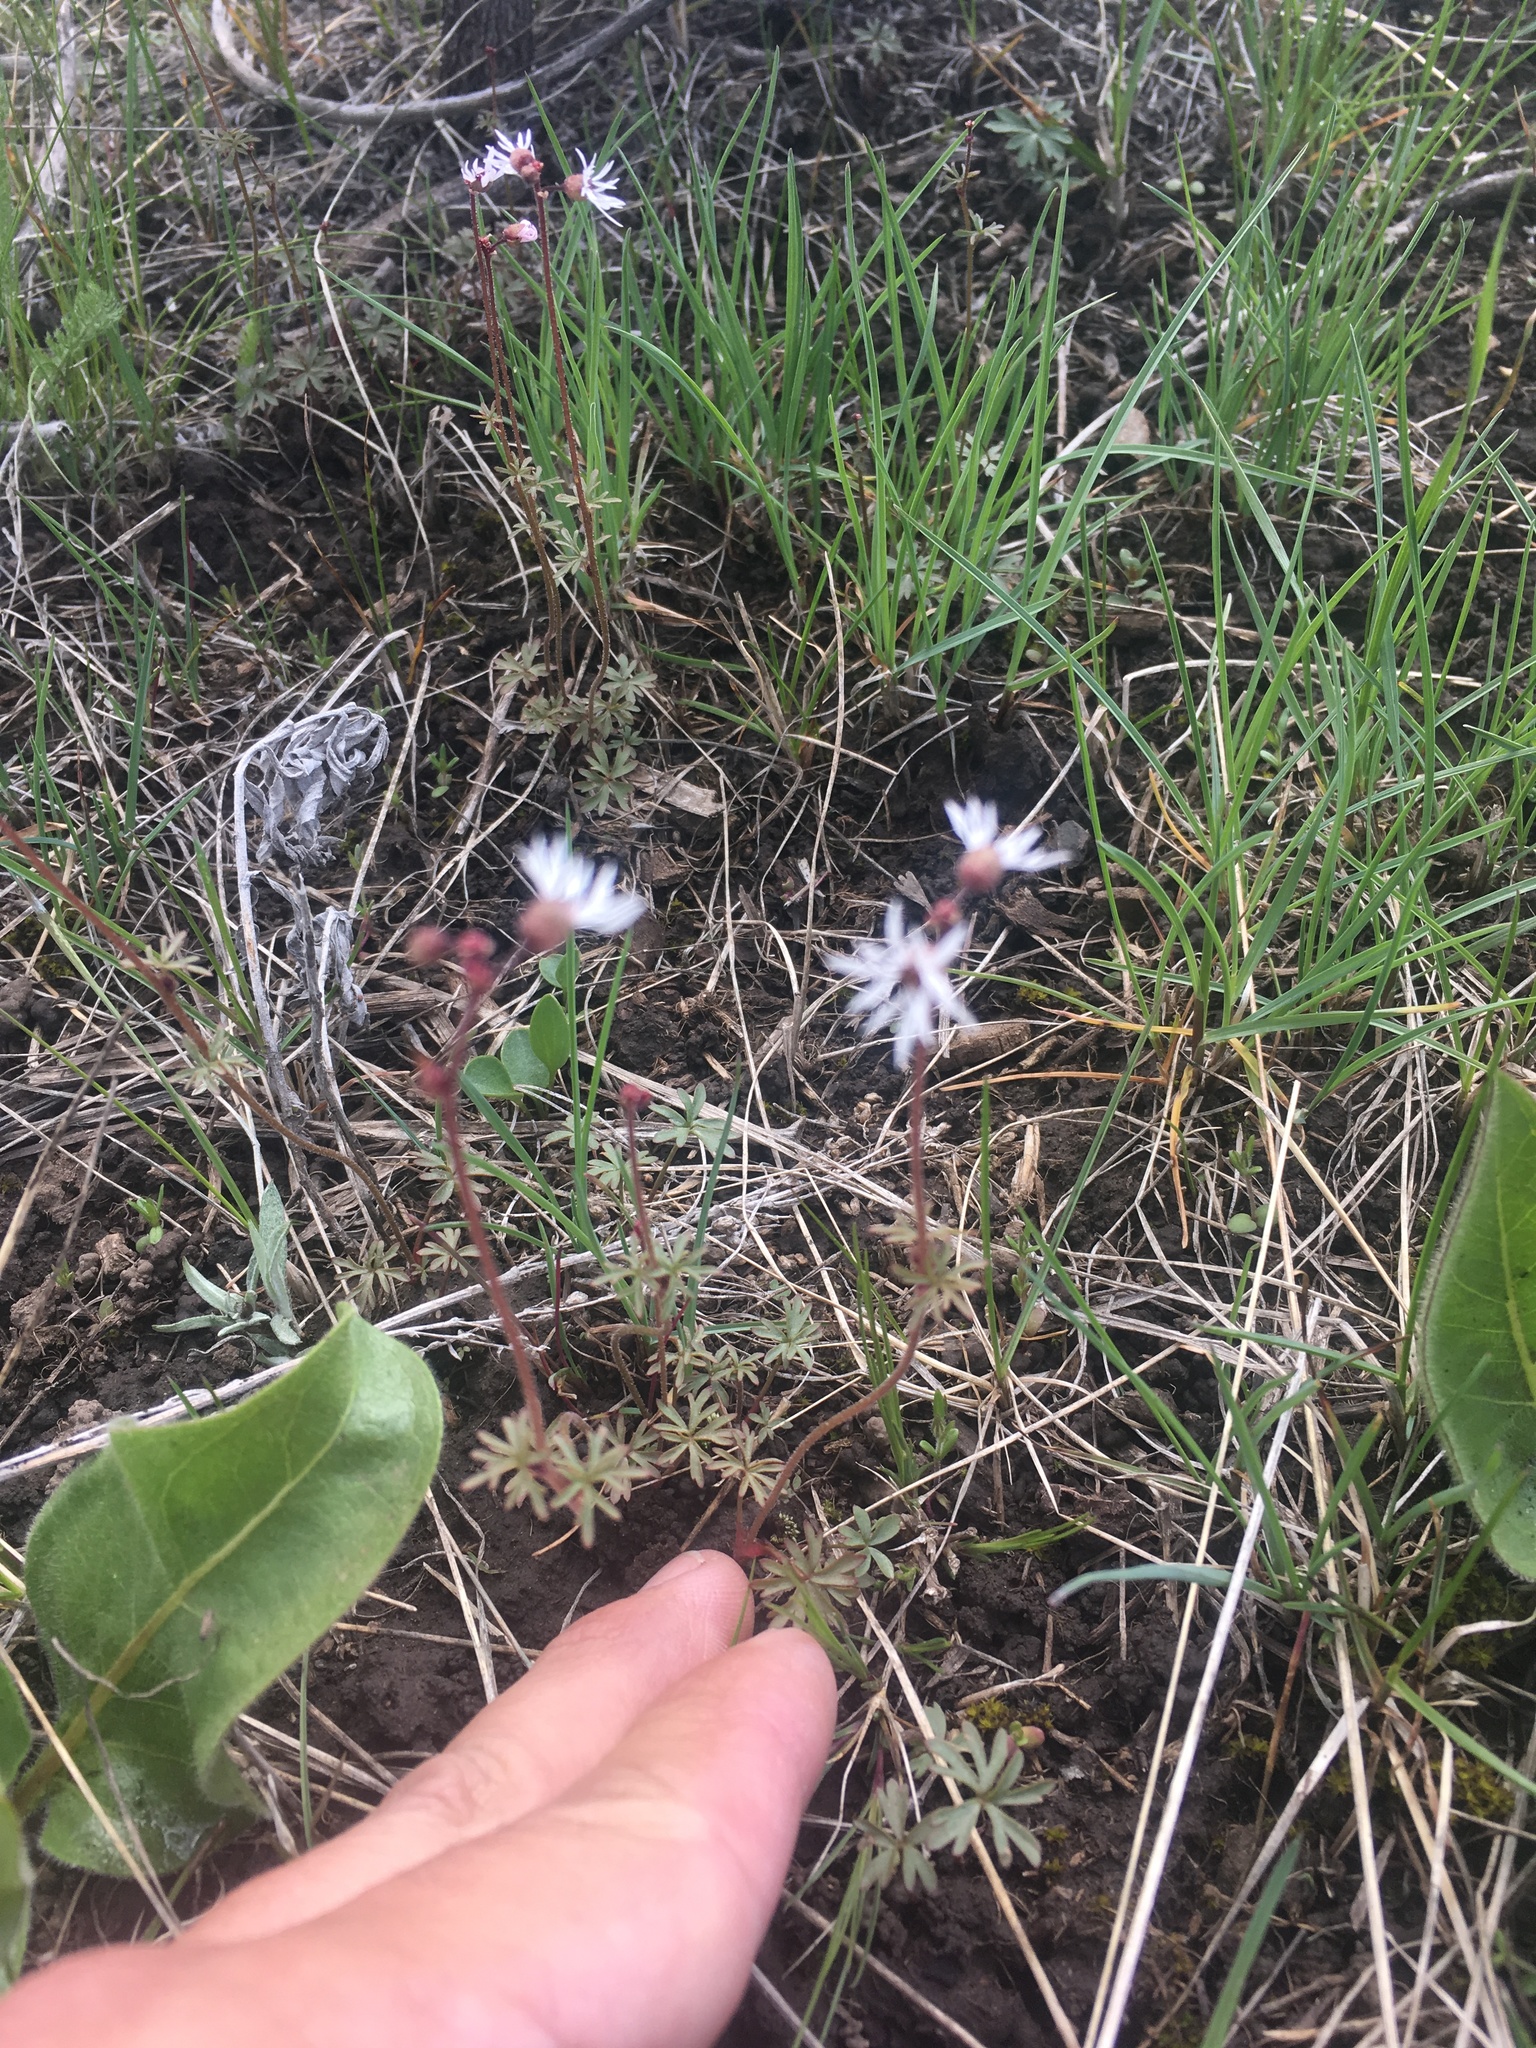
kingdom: Plantae
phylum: Tracheophyta
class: Magnoliopsida
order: Saxifragales
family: Saxifragaceae
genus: Lithophragma
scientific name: Lithophragma glabrum
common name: Bulbous prairie-star
